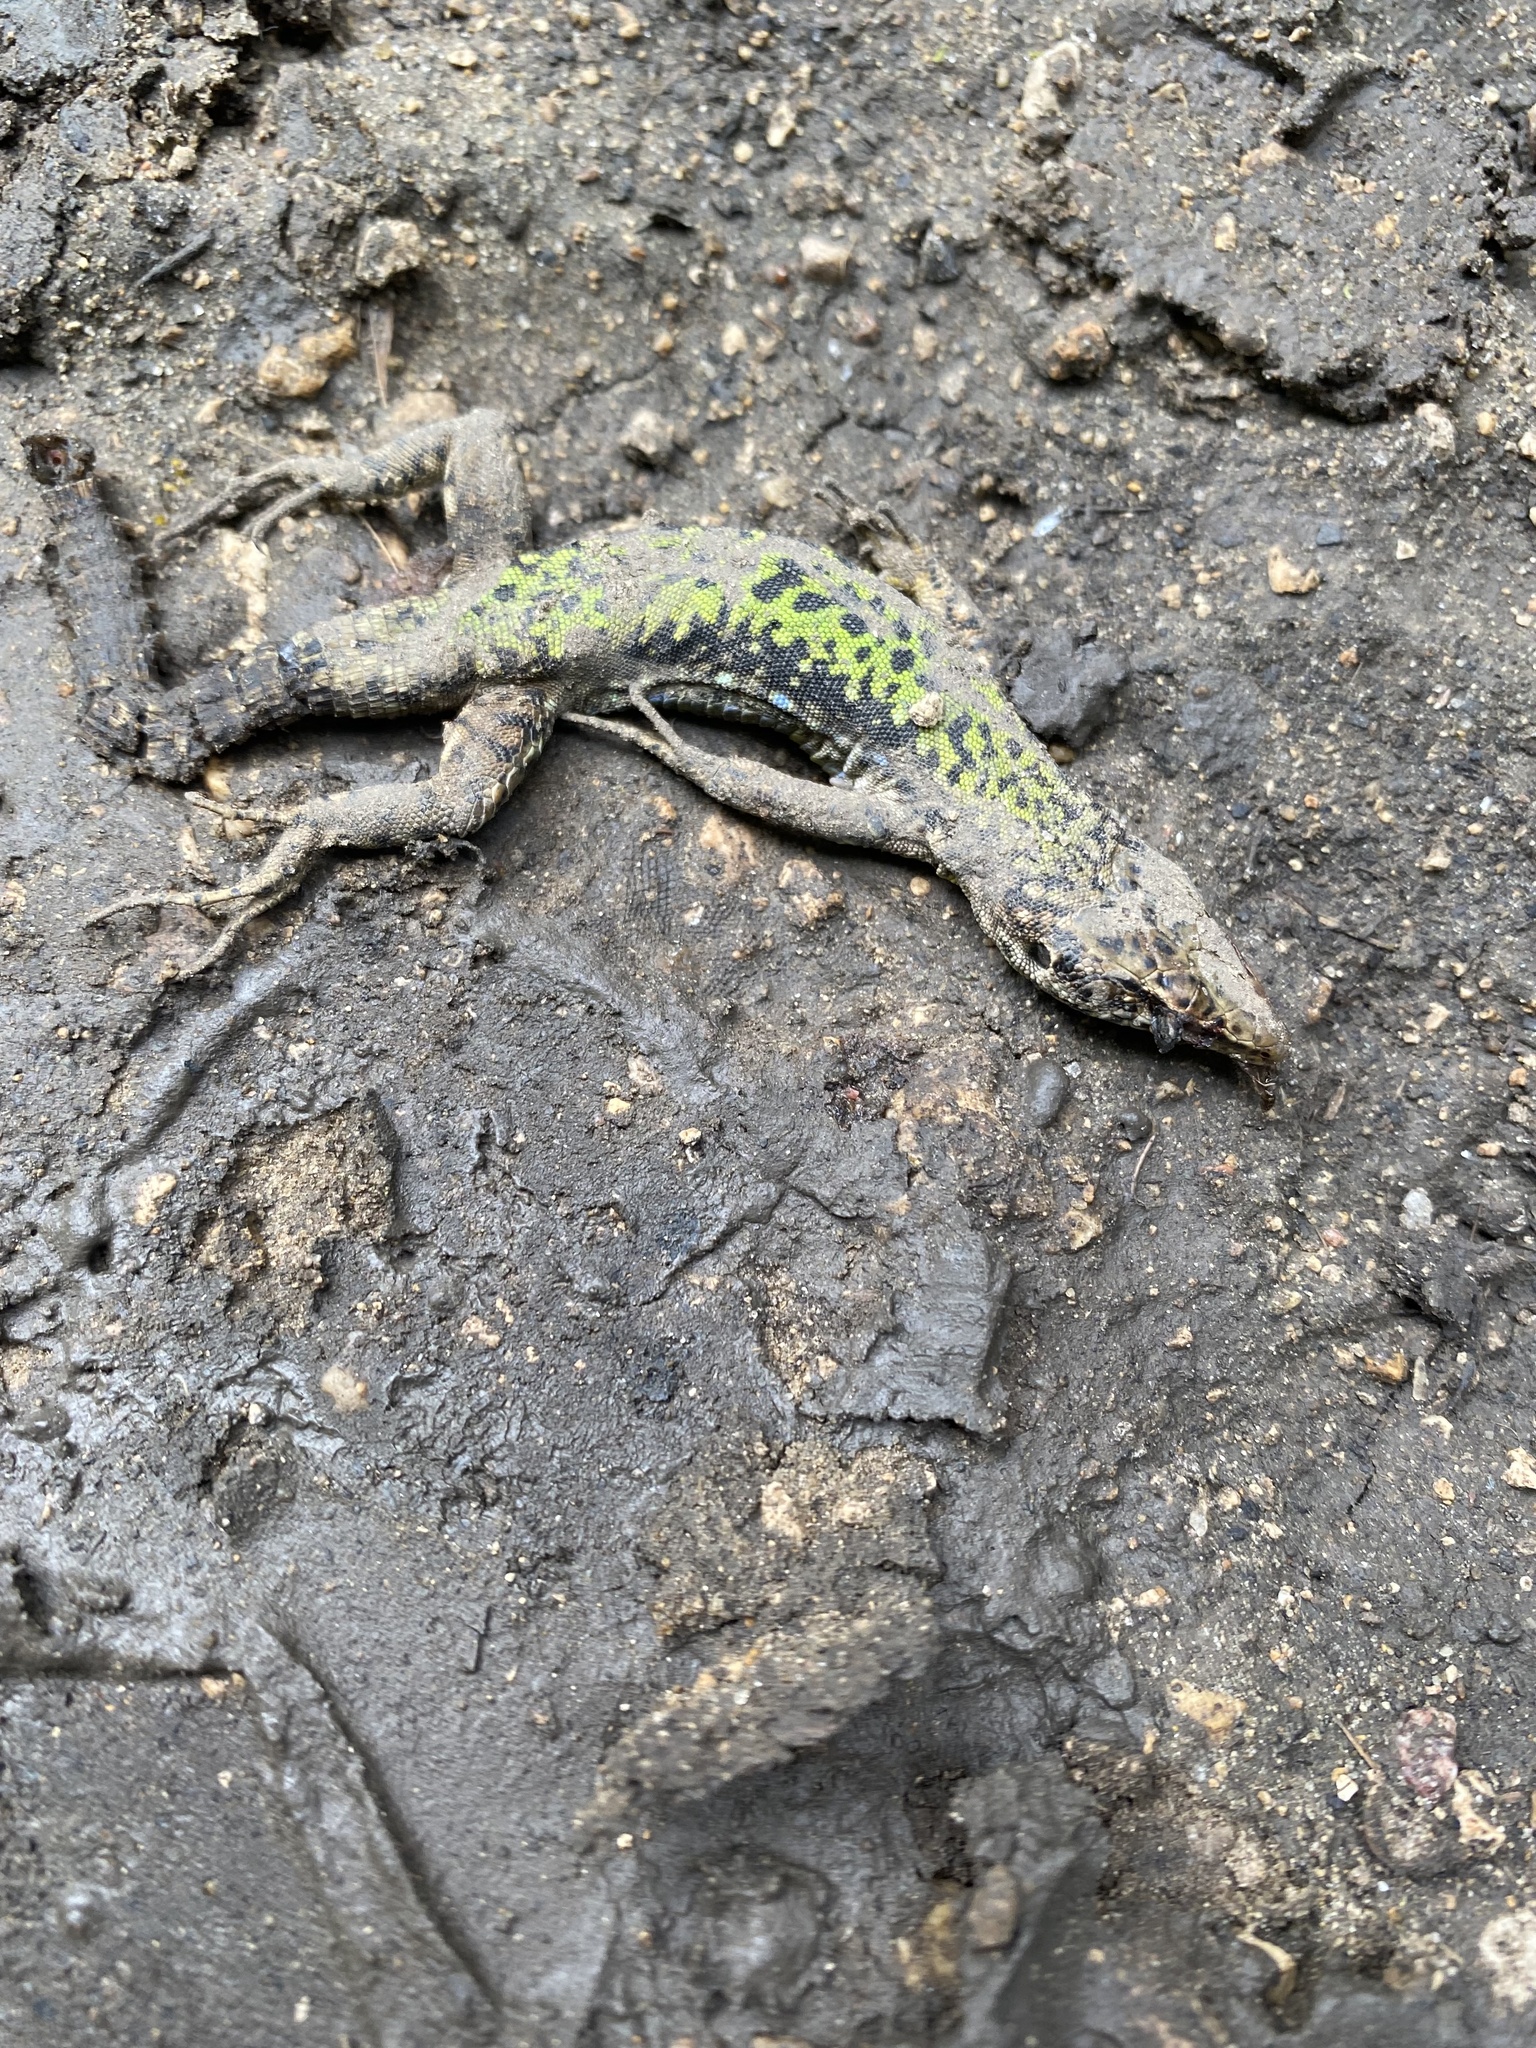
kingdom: Animalia
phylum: Chordata
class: Squamata
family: Lacertidae
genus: Darevskia
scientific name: Darevskia brauneri
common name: Brauner's rock lizard
